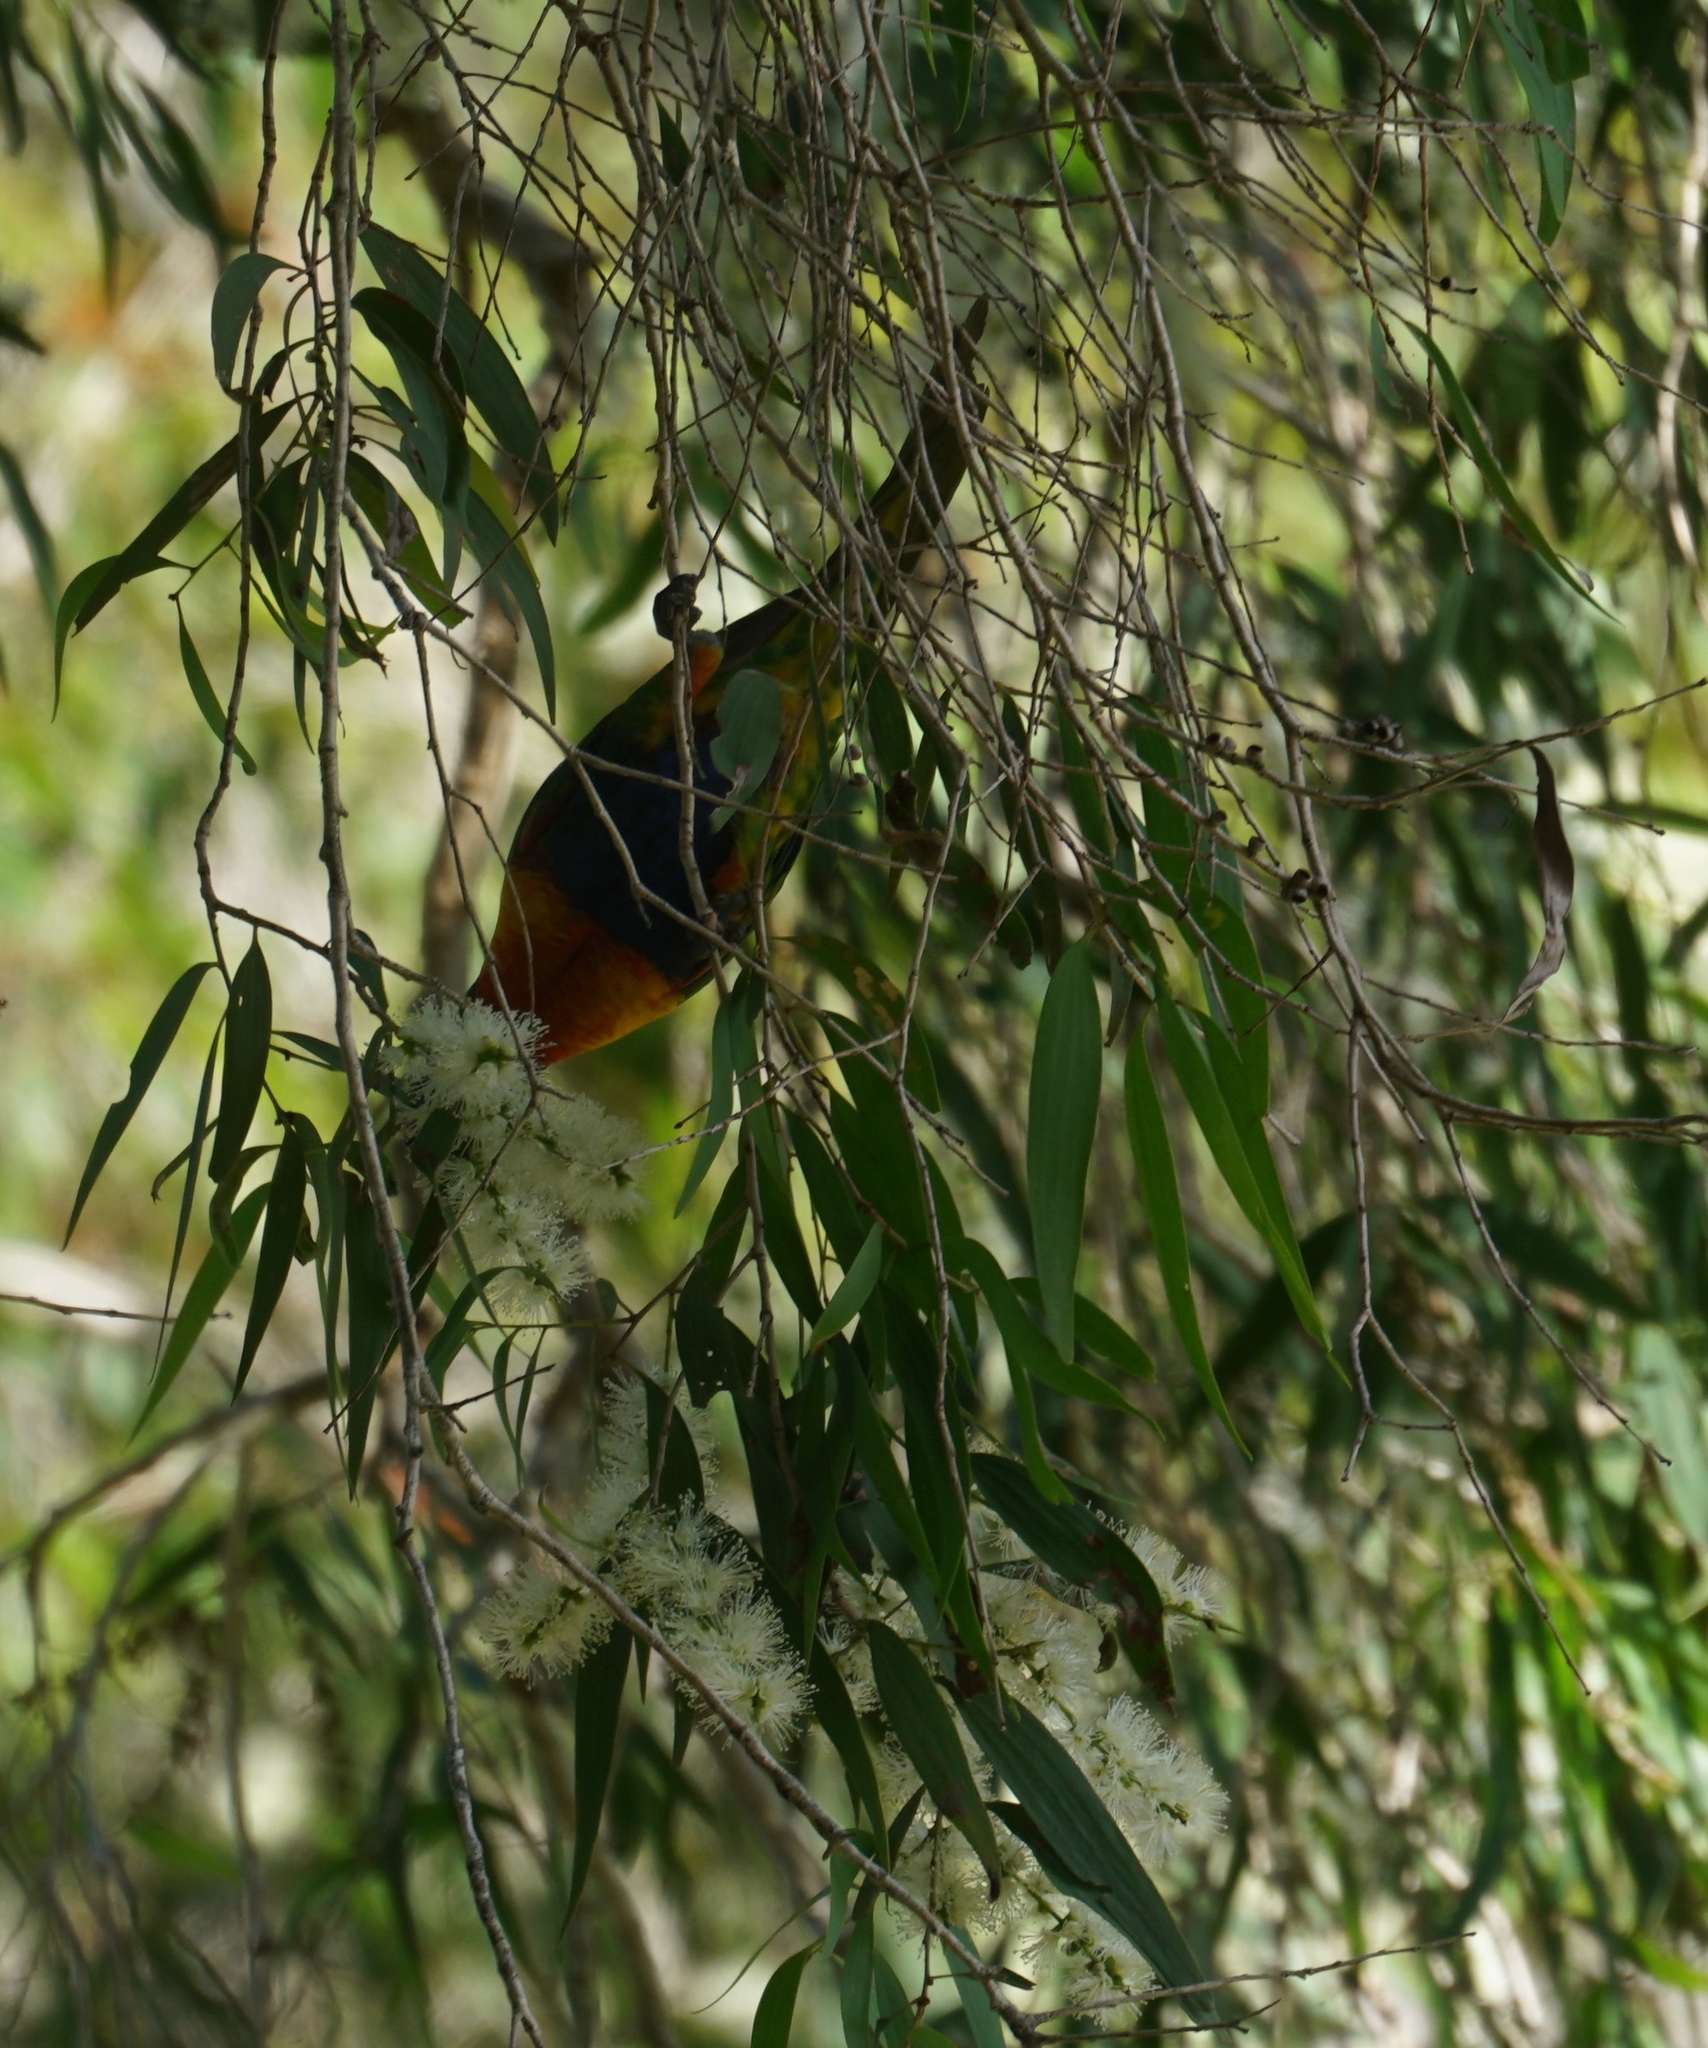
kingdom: Animalia
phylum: Chordata
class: Aves
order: Psittaciformes
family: Psittacidae
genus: Trichoglossus
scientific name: Trichoglossus haematodus
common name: Coconut lorikeet
